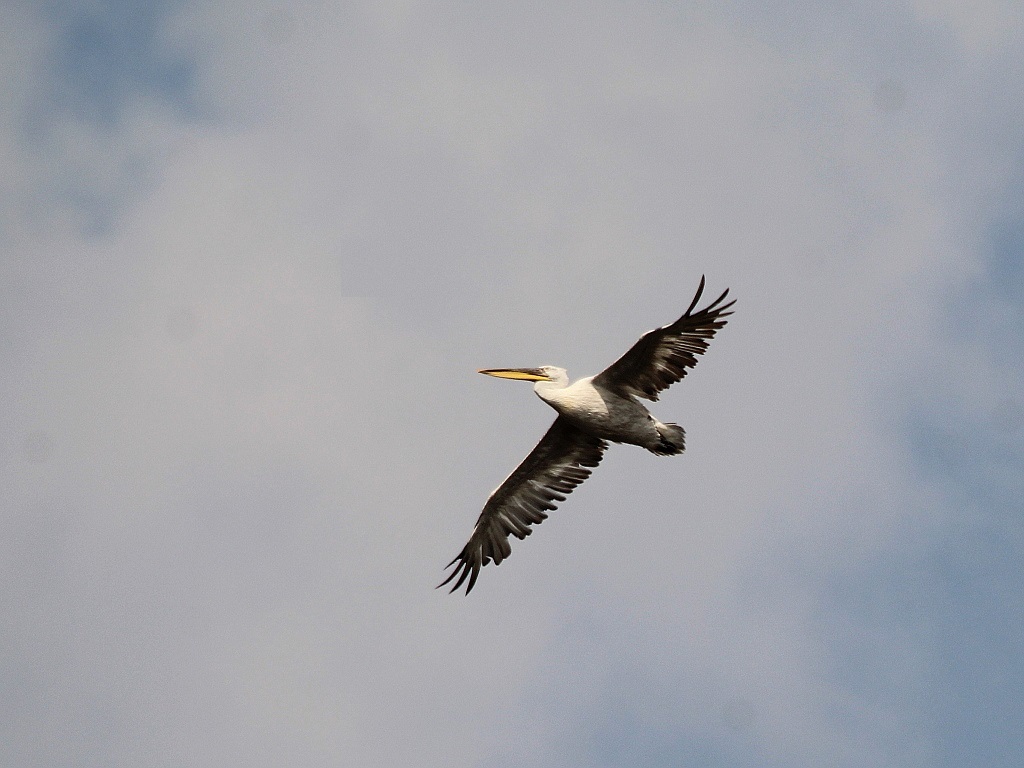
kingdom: Animalia
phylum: Chordata
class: Aves
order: Pelecaniformes
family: Pelecanidae
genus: Pelecanus
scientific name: Pelecanus crispus
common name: Dalmatian pelican
